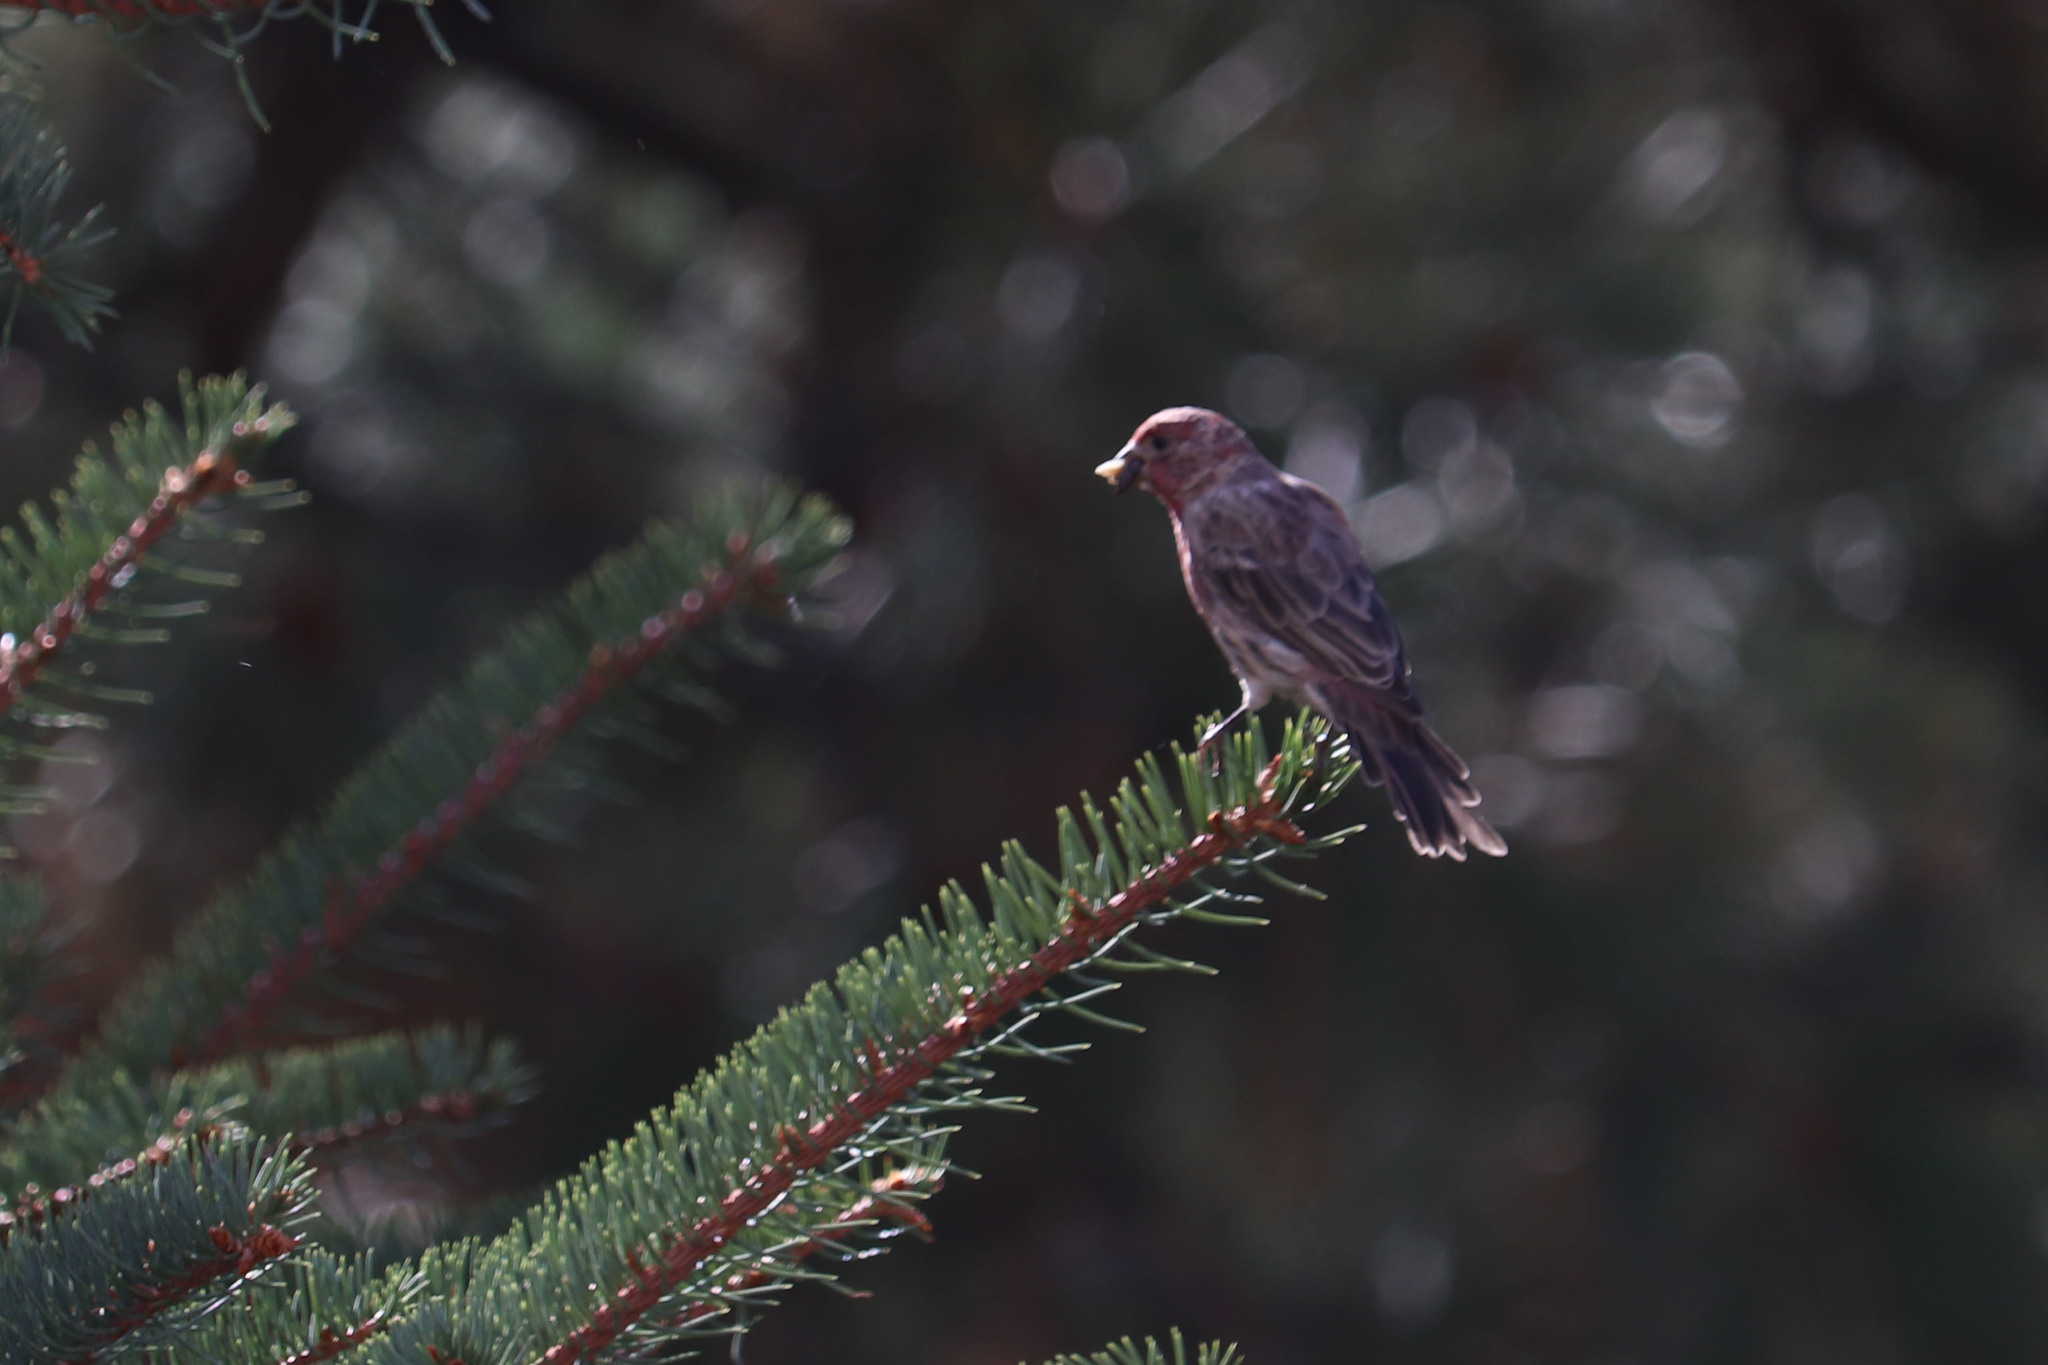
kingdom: Animalia
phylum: Chordata
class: Aves
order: Passeriformes
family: Fringillidae
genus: Haemorhous
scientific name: Haemorhous mexicanus
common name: House finch
